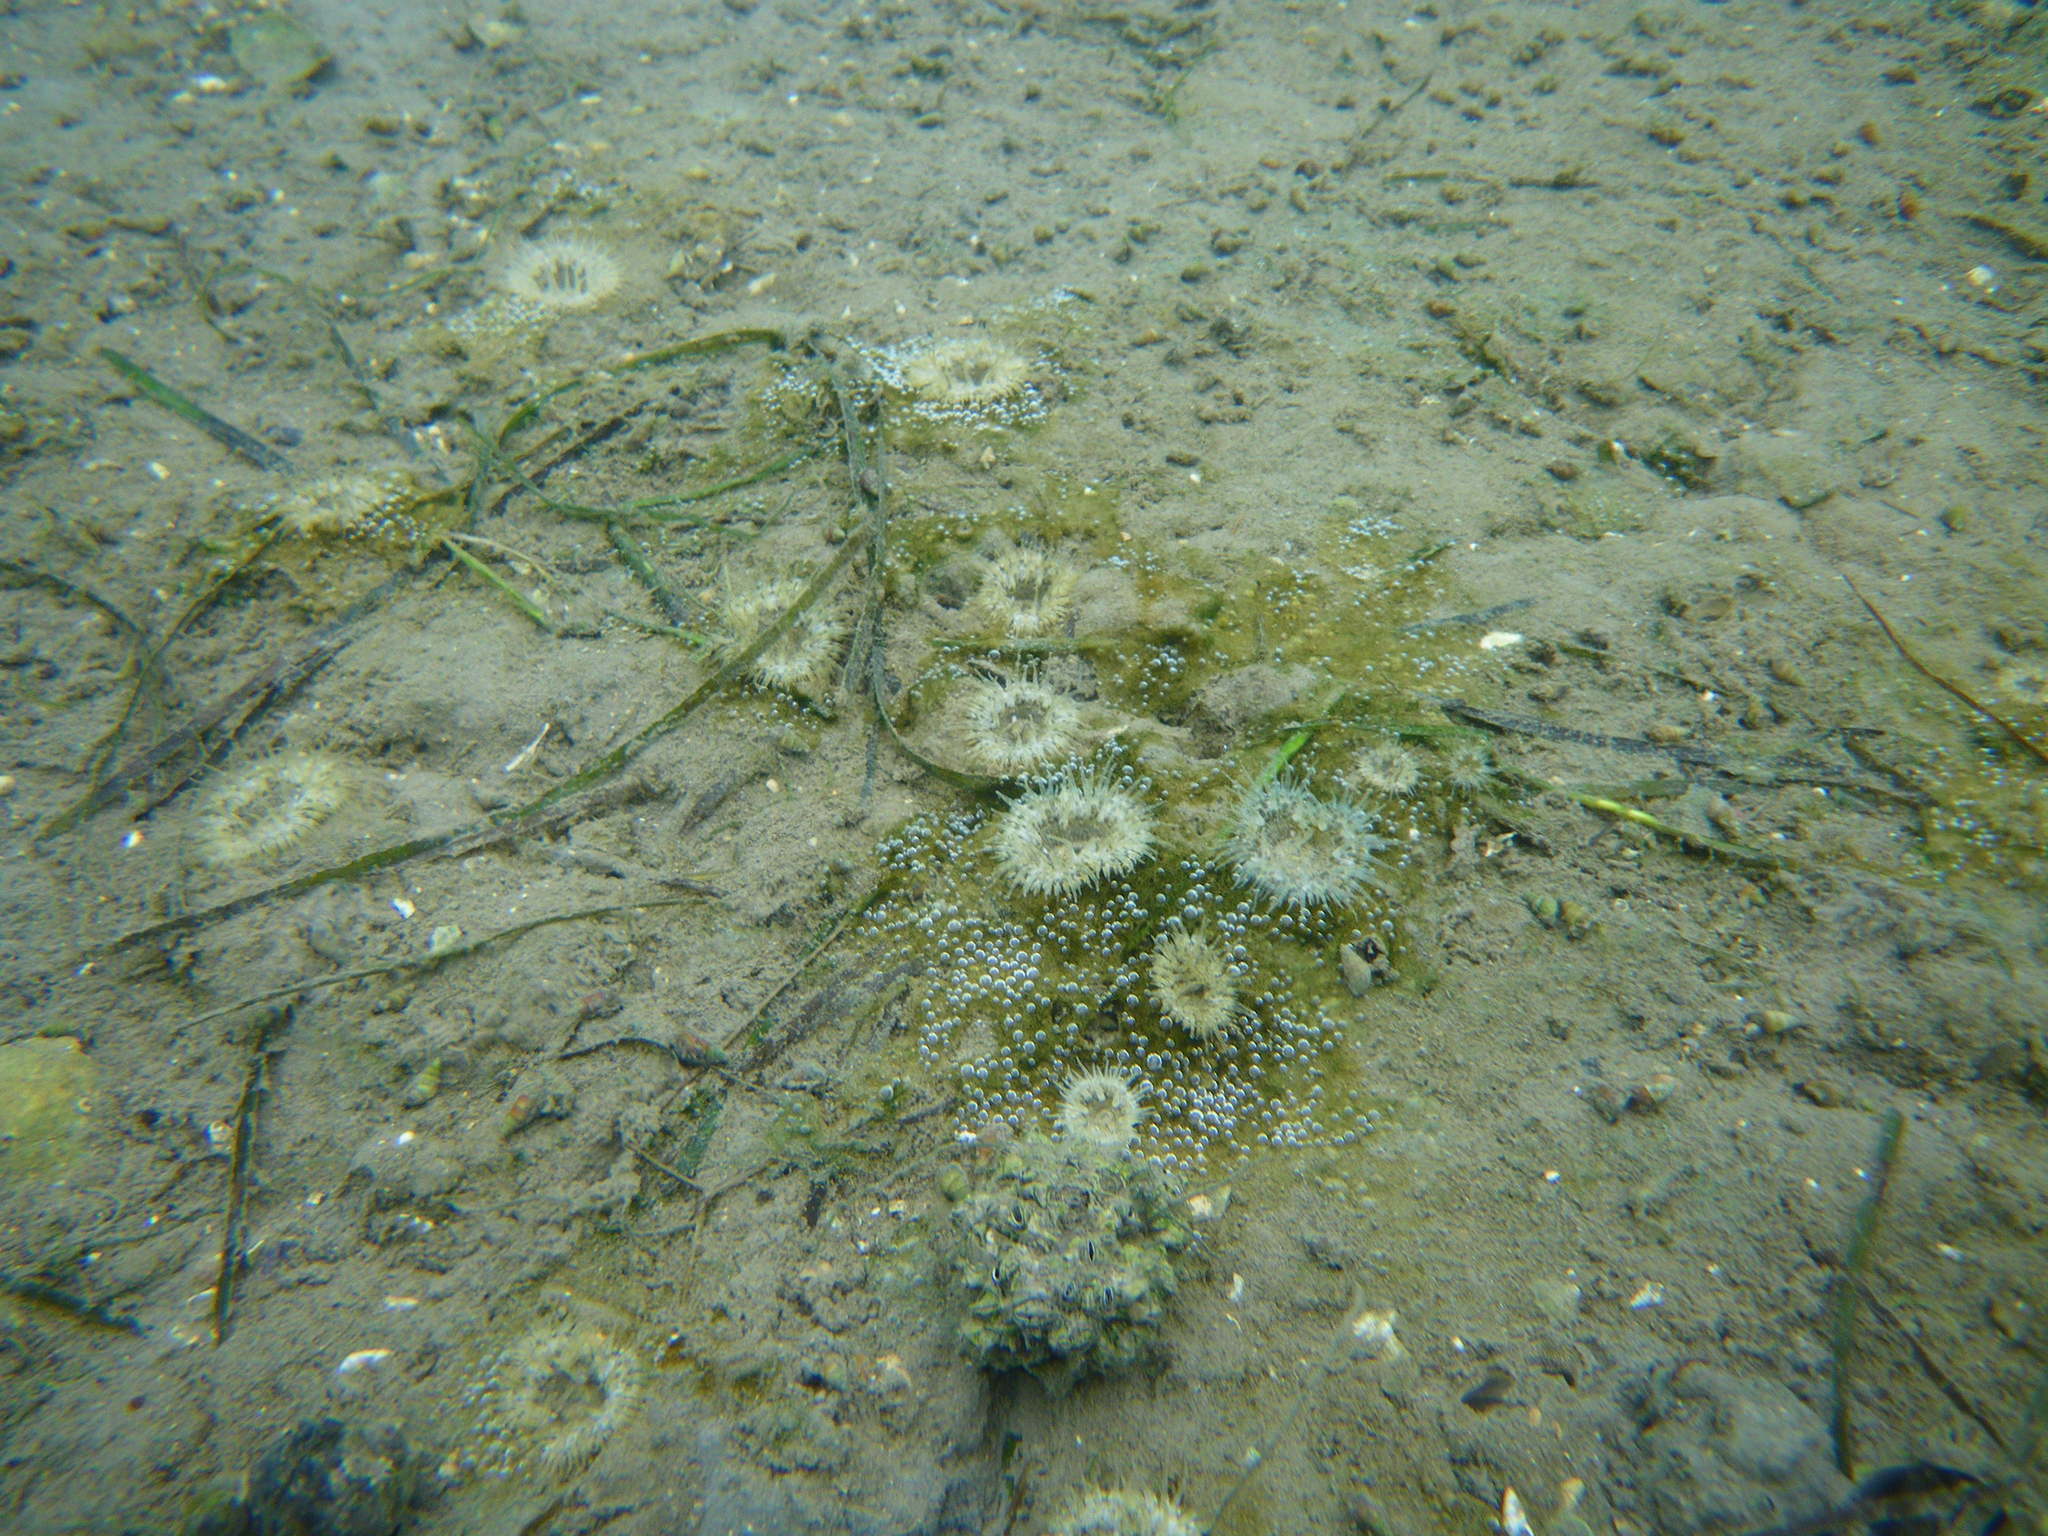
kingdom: Animalia
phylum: Cnidaria
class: Anthozoa
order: Actiniaria
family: Sagartiidae
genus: Cylista
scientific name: Cylista troglodytes
